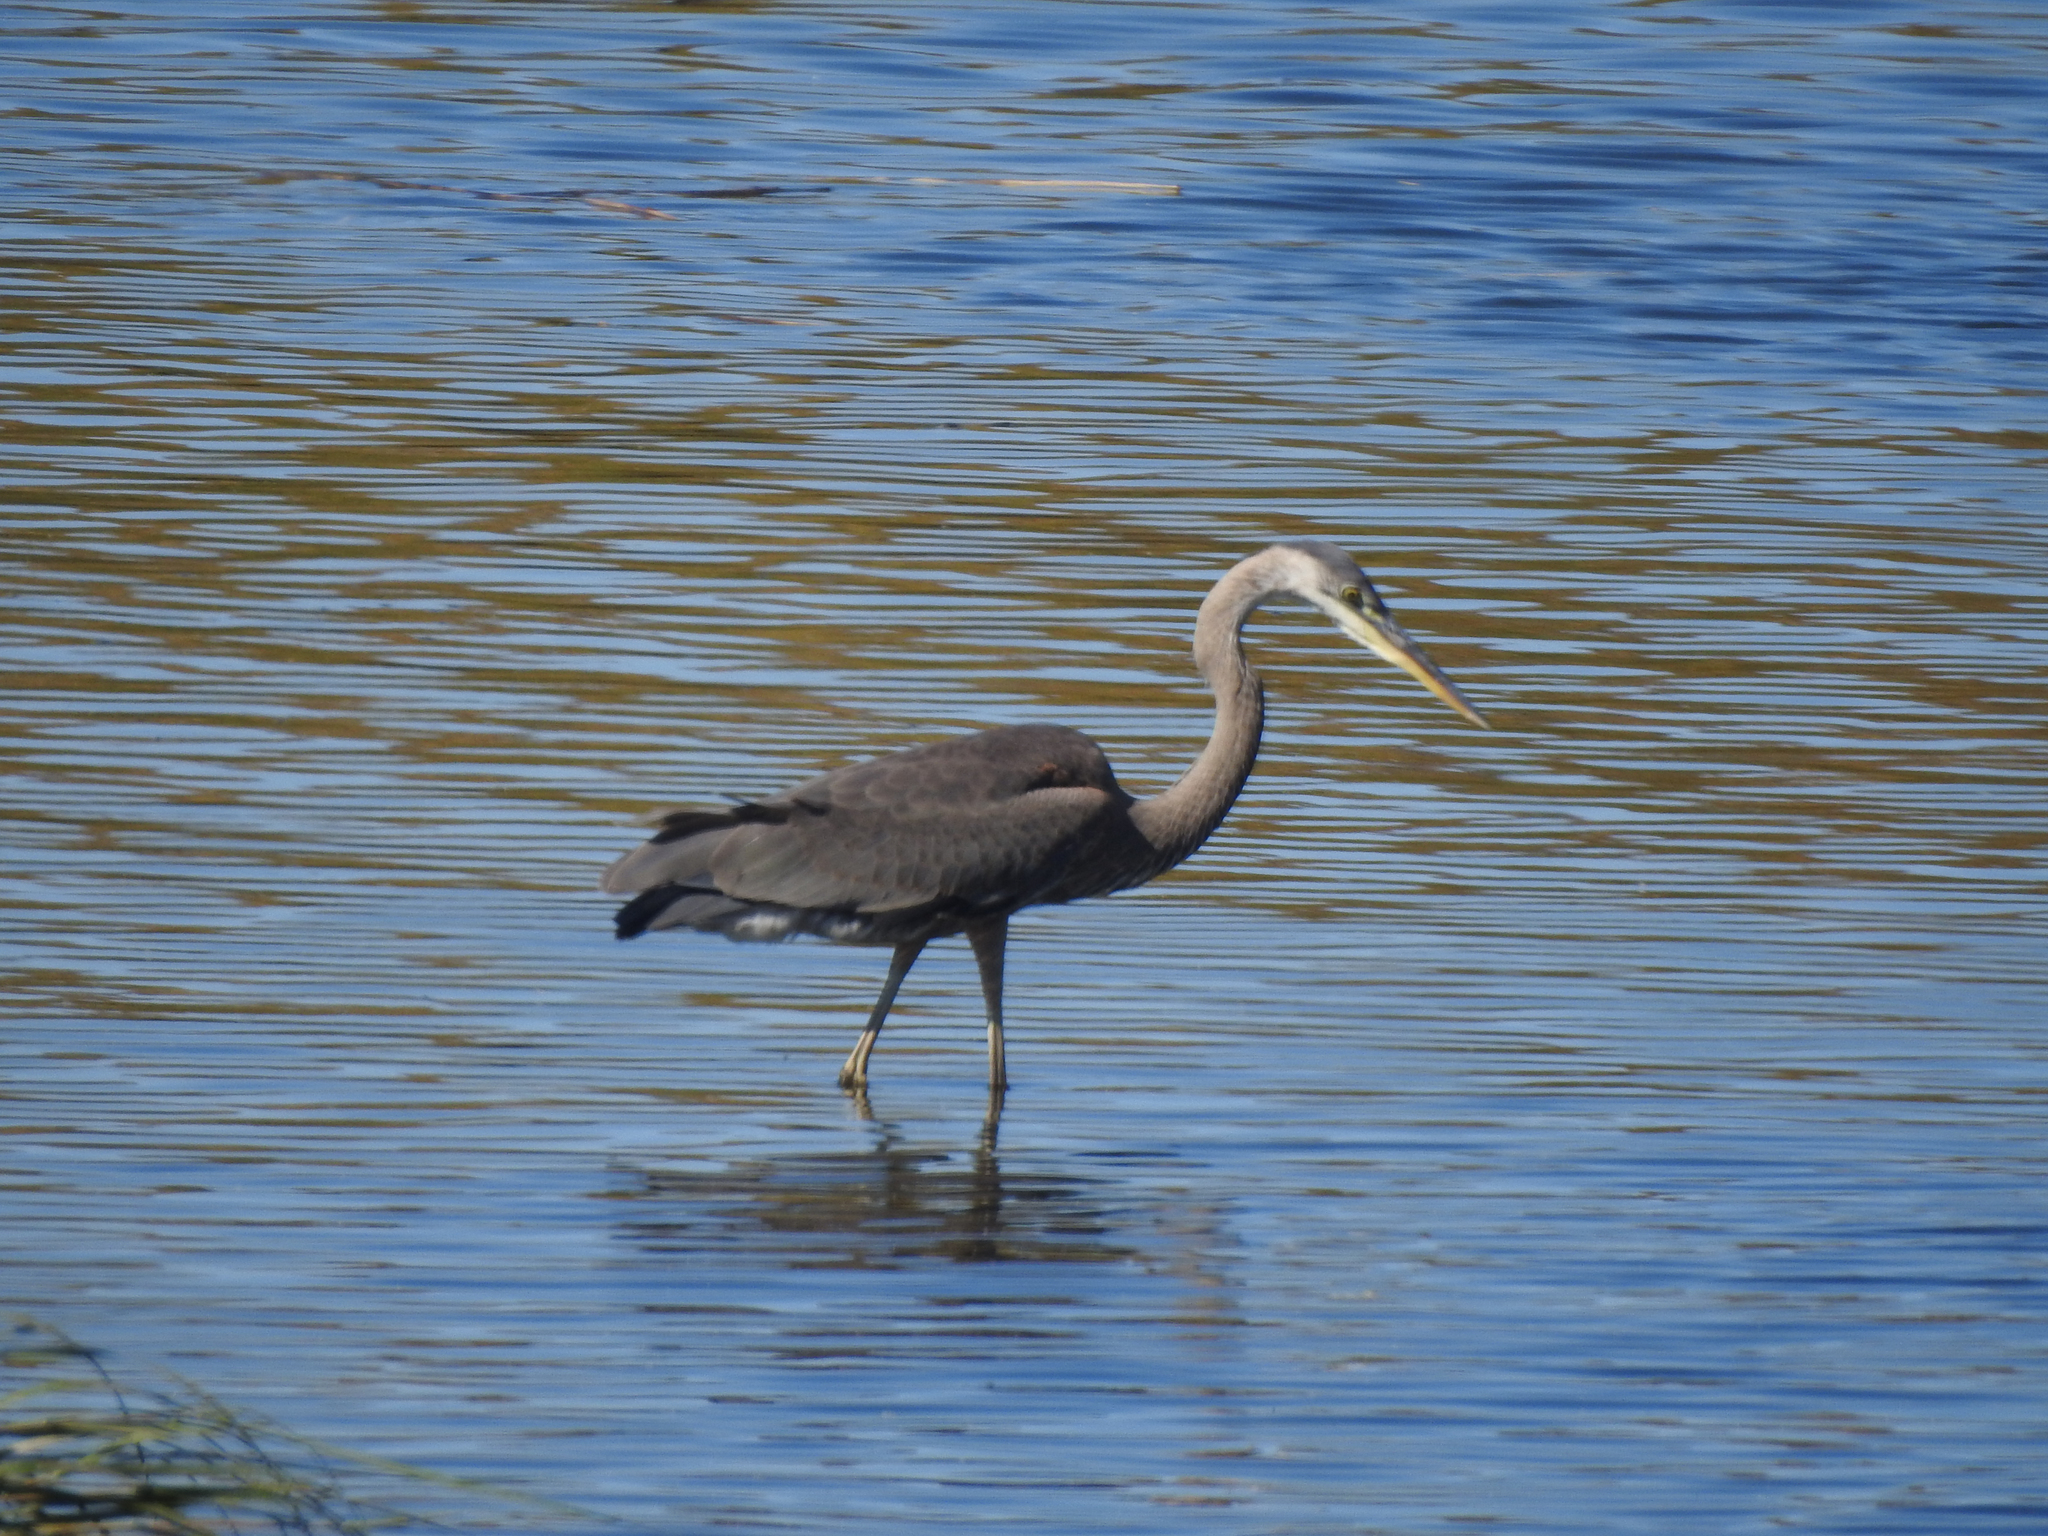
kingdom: Animalia
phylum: Chordata
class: Aves
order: Pelecaniformes
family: Ardeidae
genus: Ardea
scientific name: Ardea herodias
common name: Great blue heron
